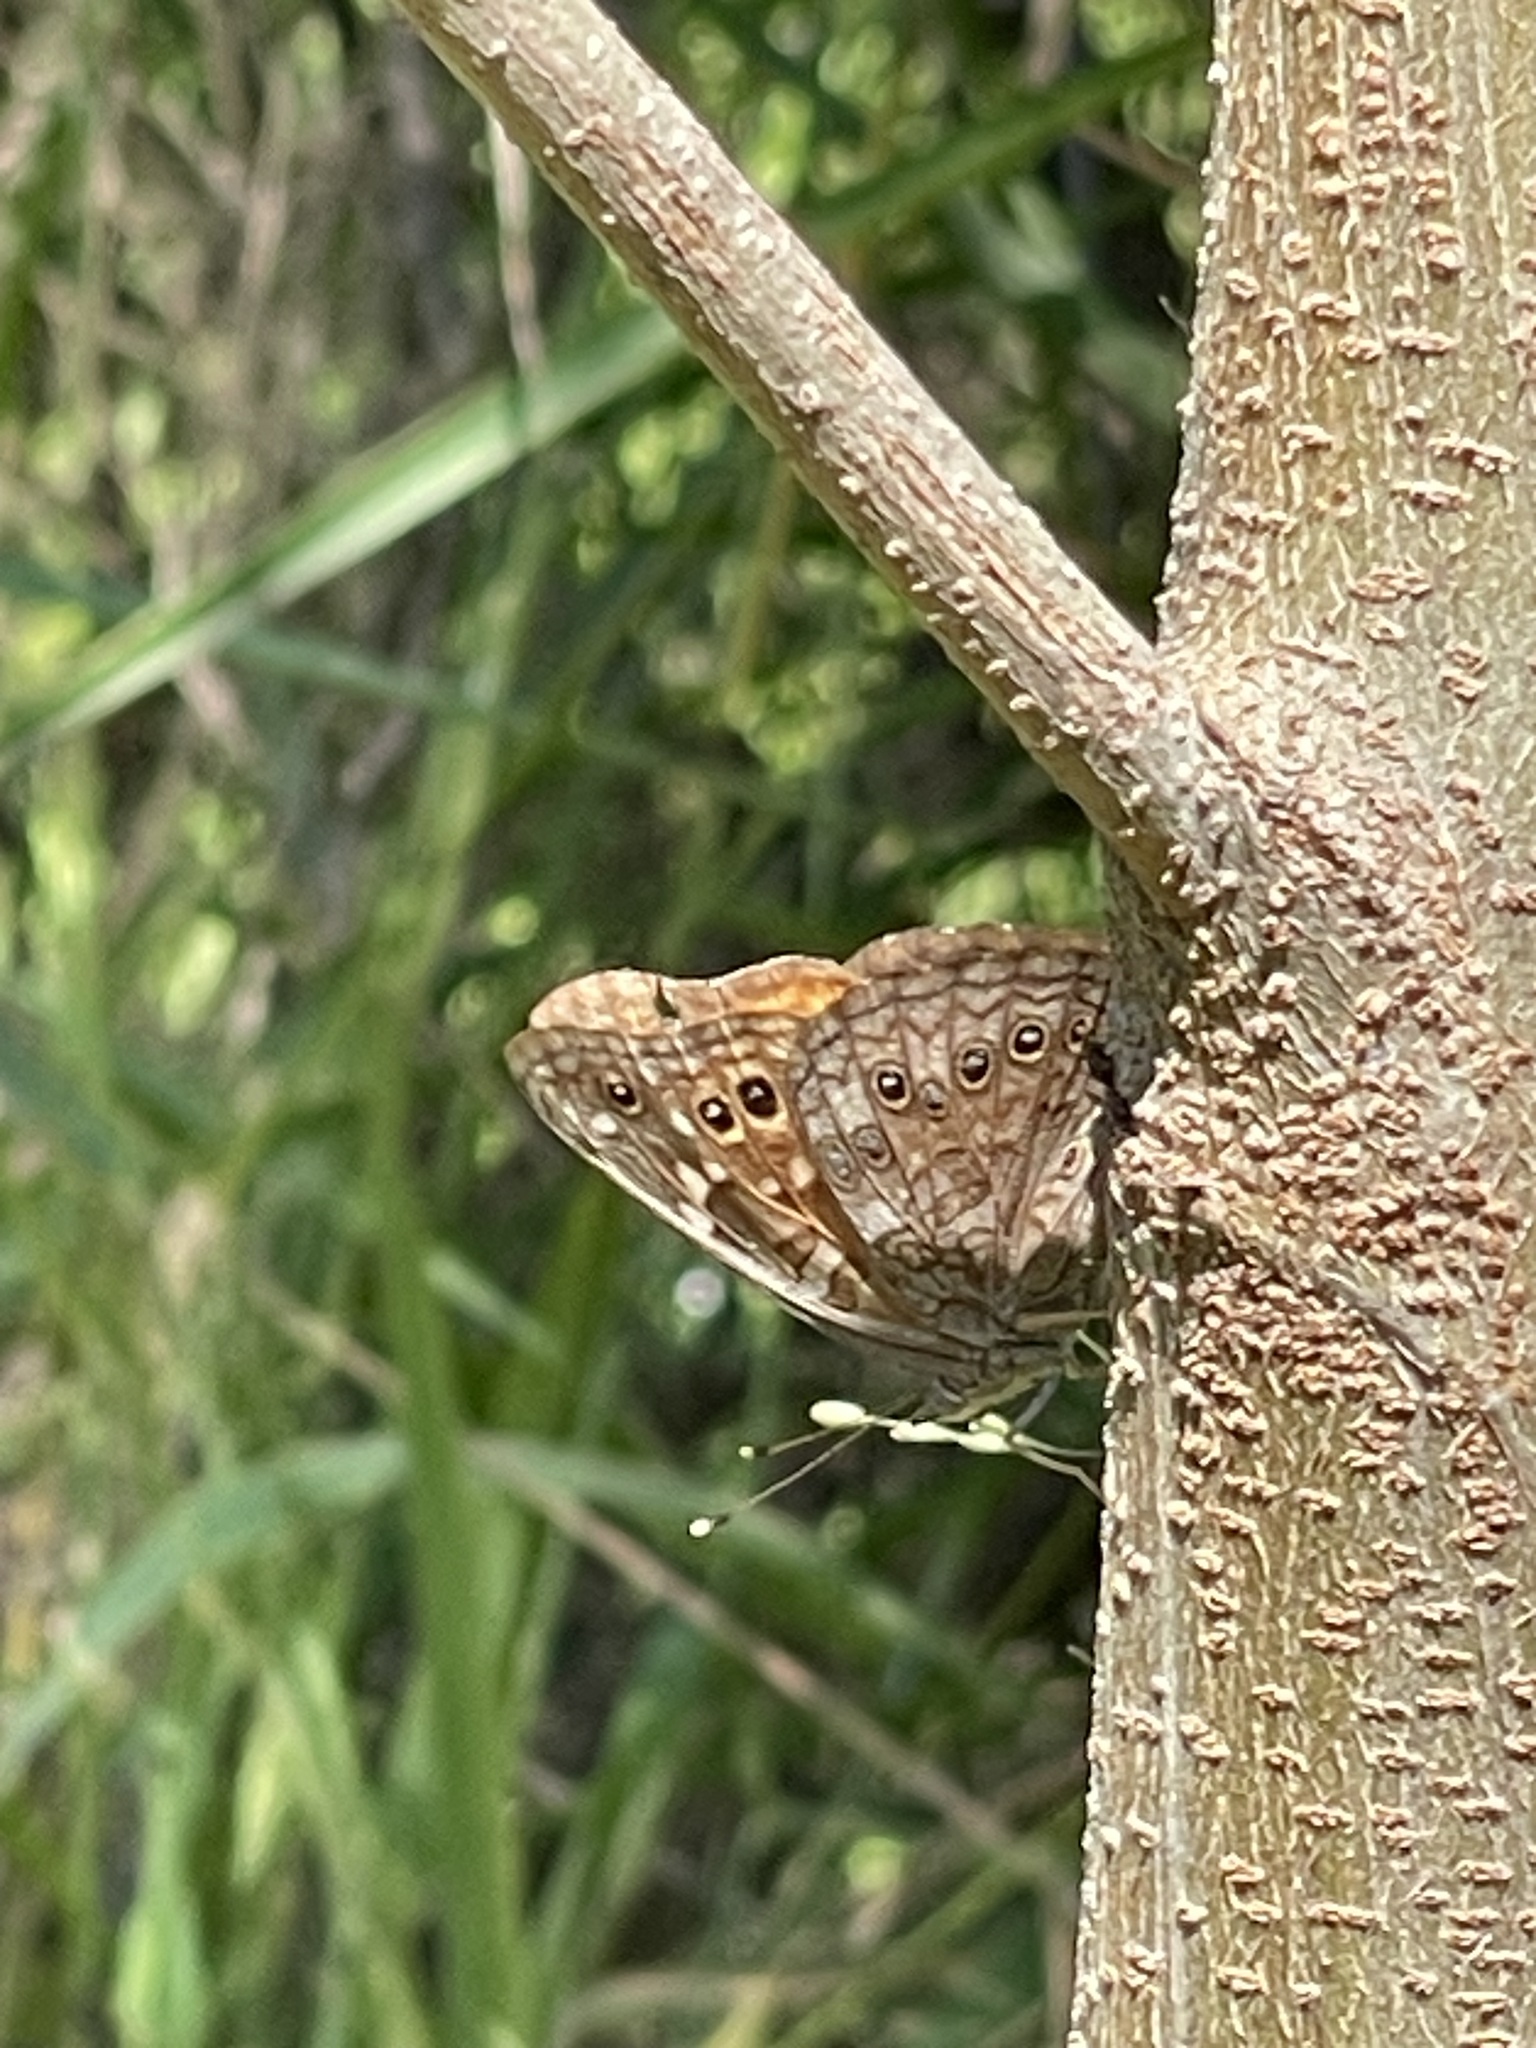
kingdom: Animalia
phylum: Arthropoda
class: Insecta
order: Lepidoptera
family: Nymphalidae
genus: Asterocampa
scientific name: Asterocampa leilia
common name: Empress leilia
